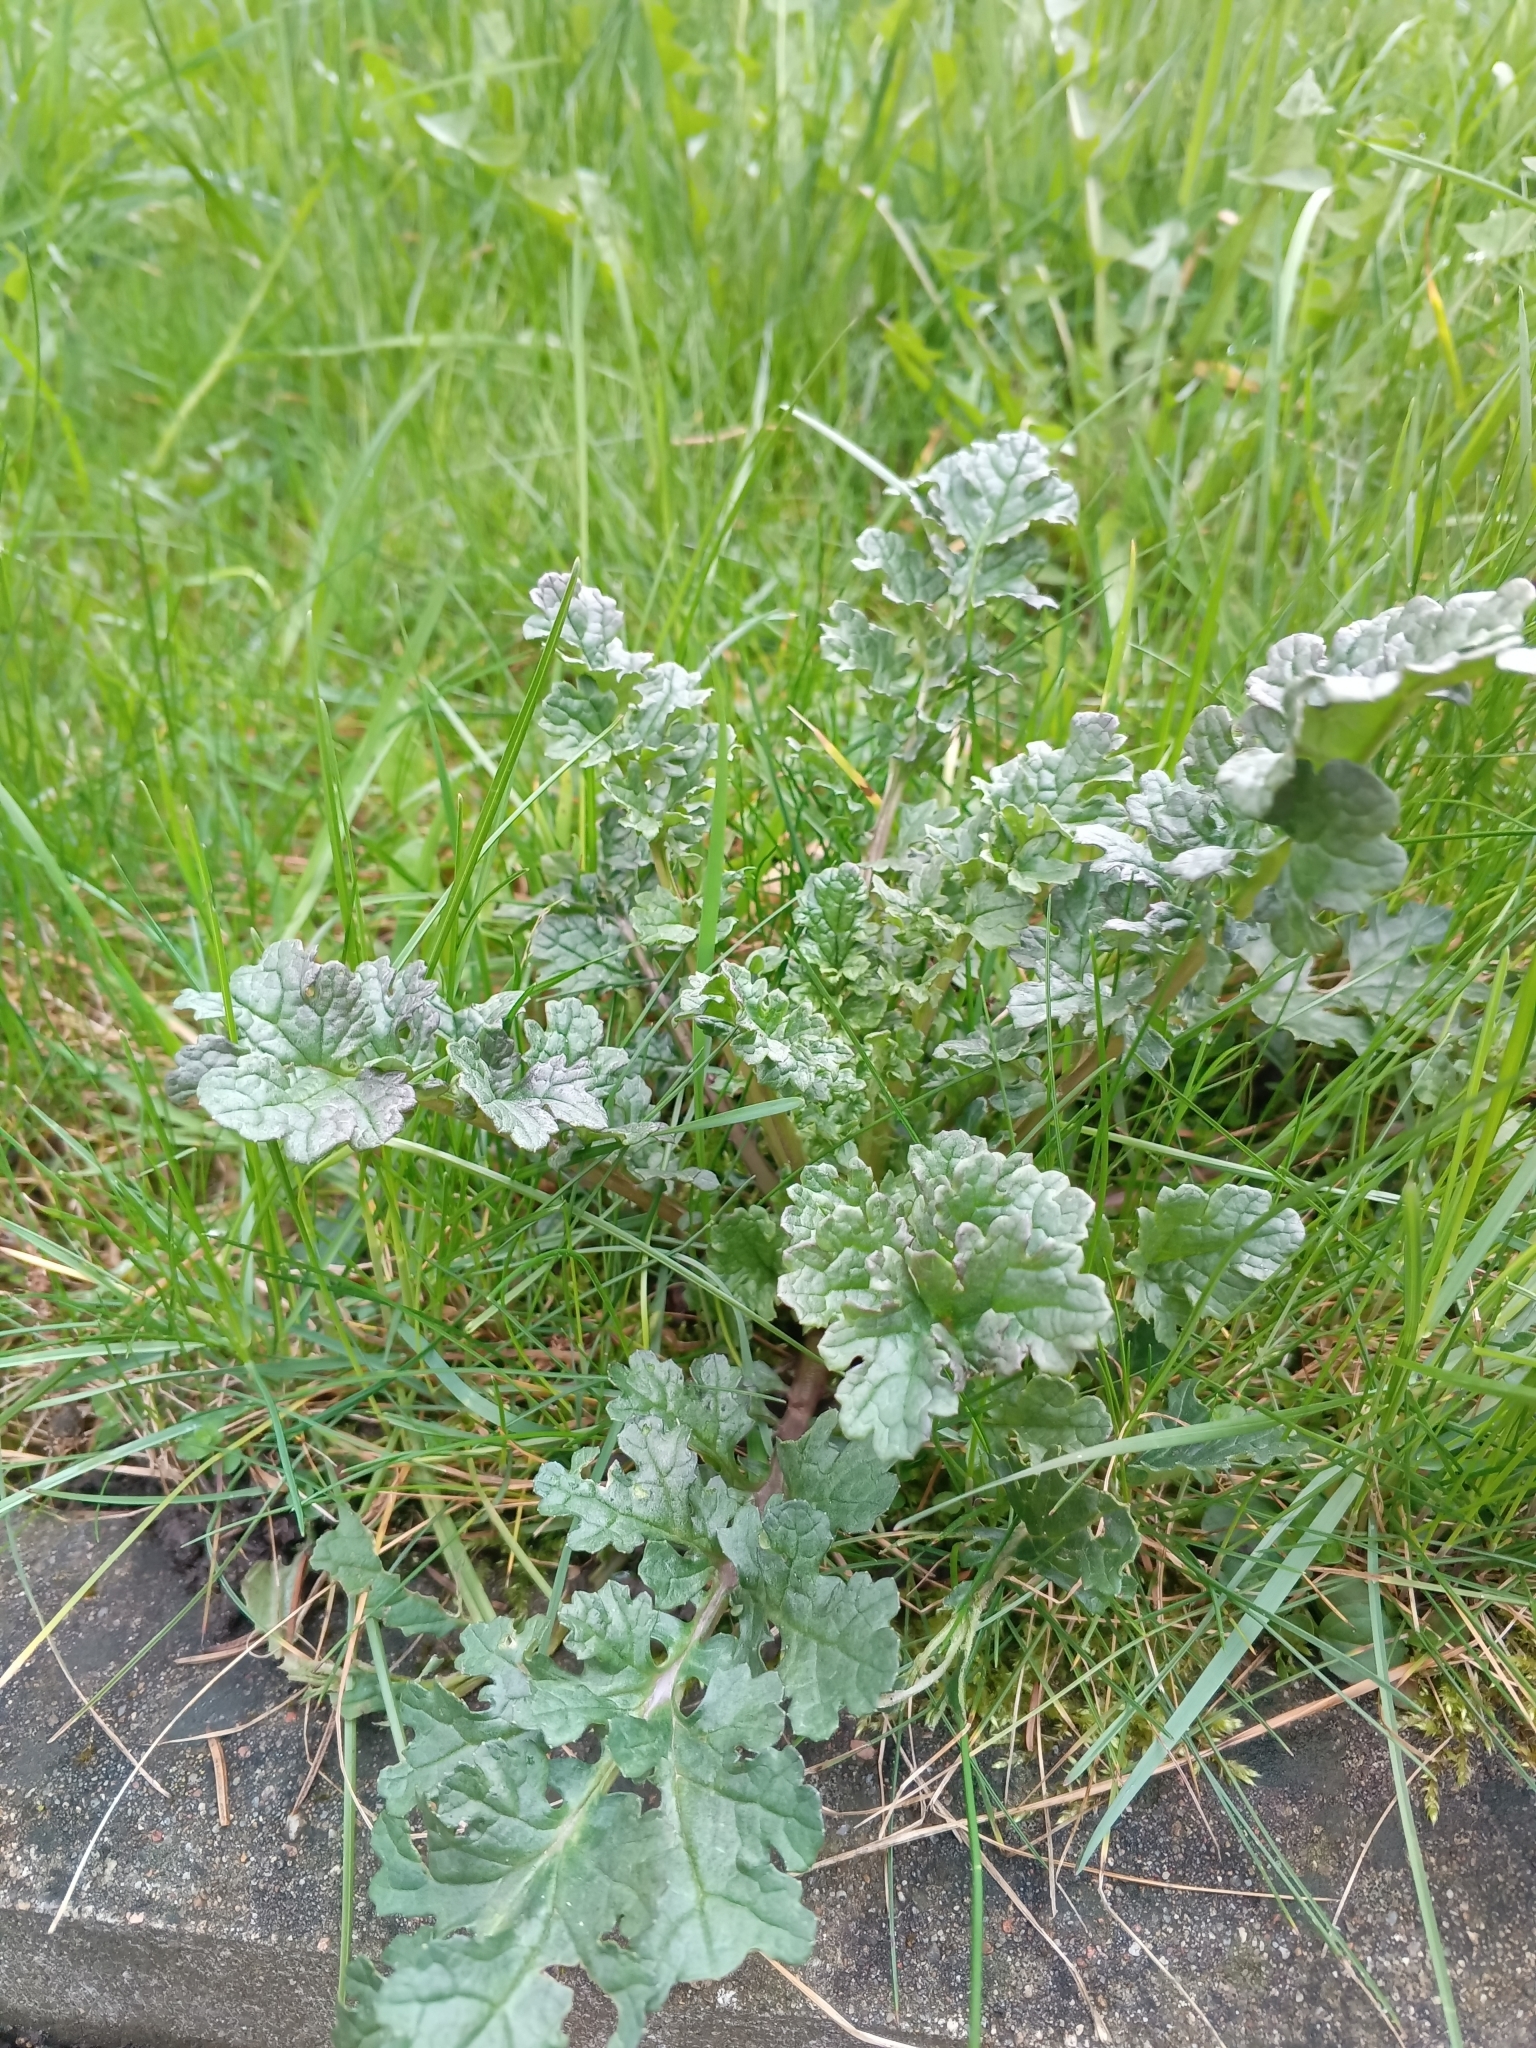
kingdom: Plantae
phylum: Tracheophyta
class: Magnoliopsida
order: Asterales
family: Asteraceae
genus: Jacobaea
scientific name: Jacobaea vulgaris
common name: Stinking willie
